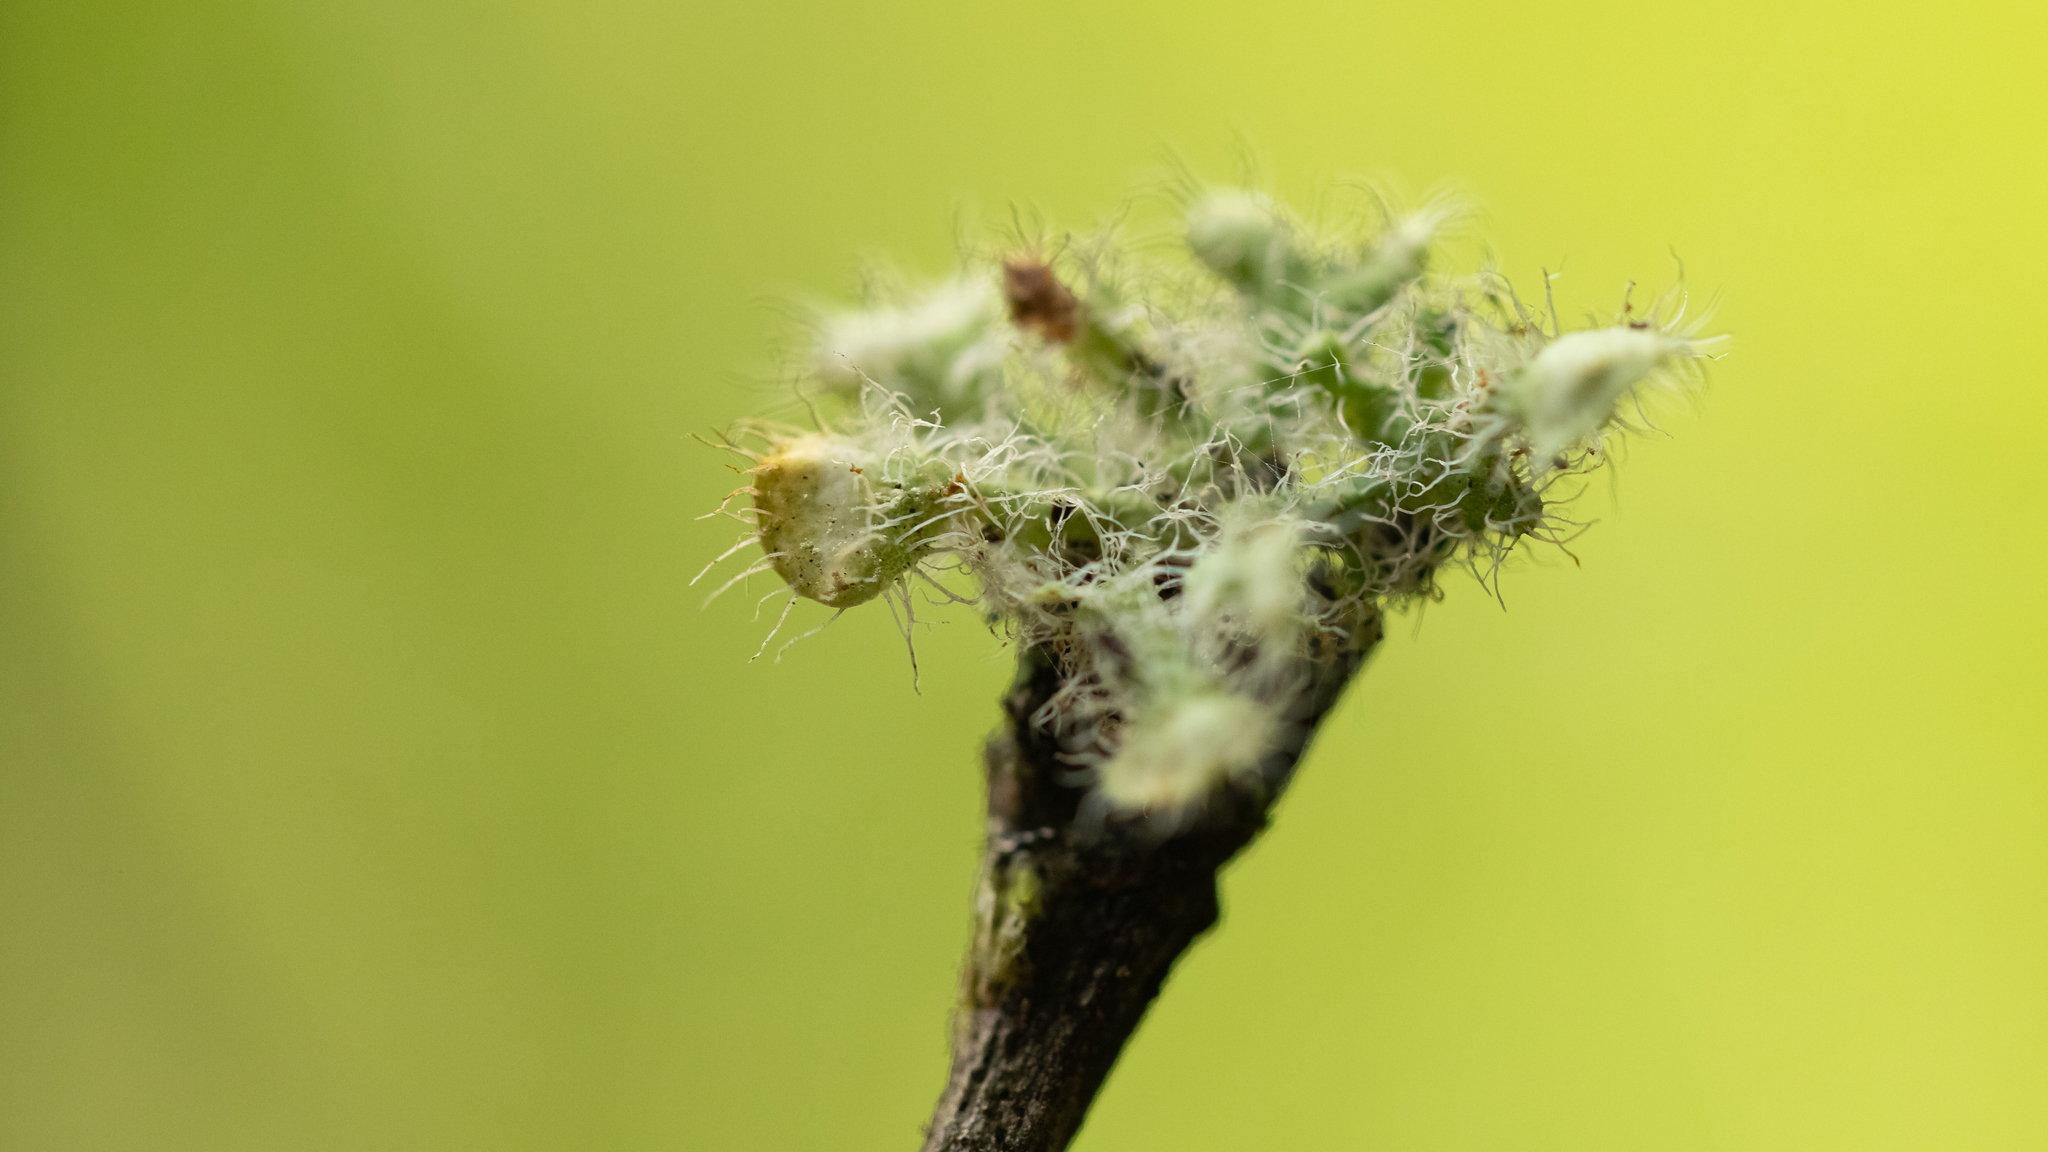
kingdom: Fungi
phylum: Ascomycota
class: Lecanoromycetes
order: Caliciales
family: Physciaceae
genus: Heterodermia
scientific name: Heterodermia comosa
